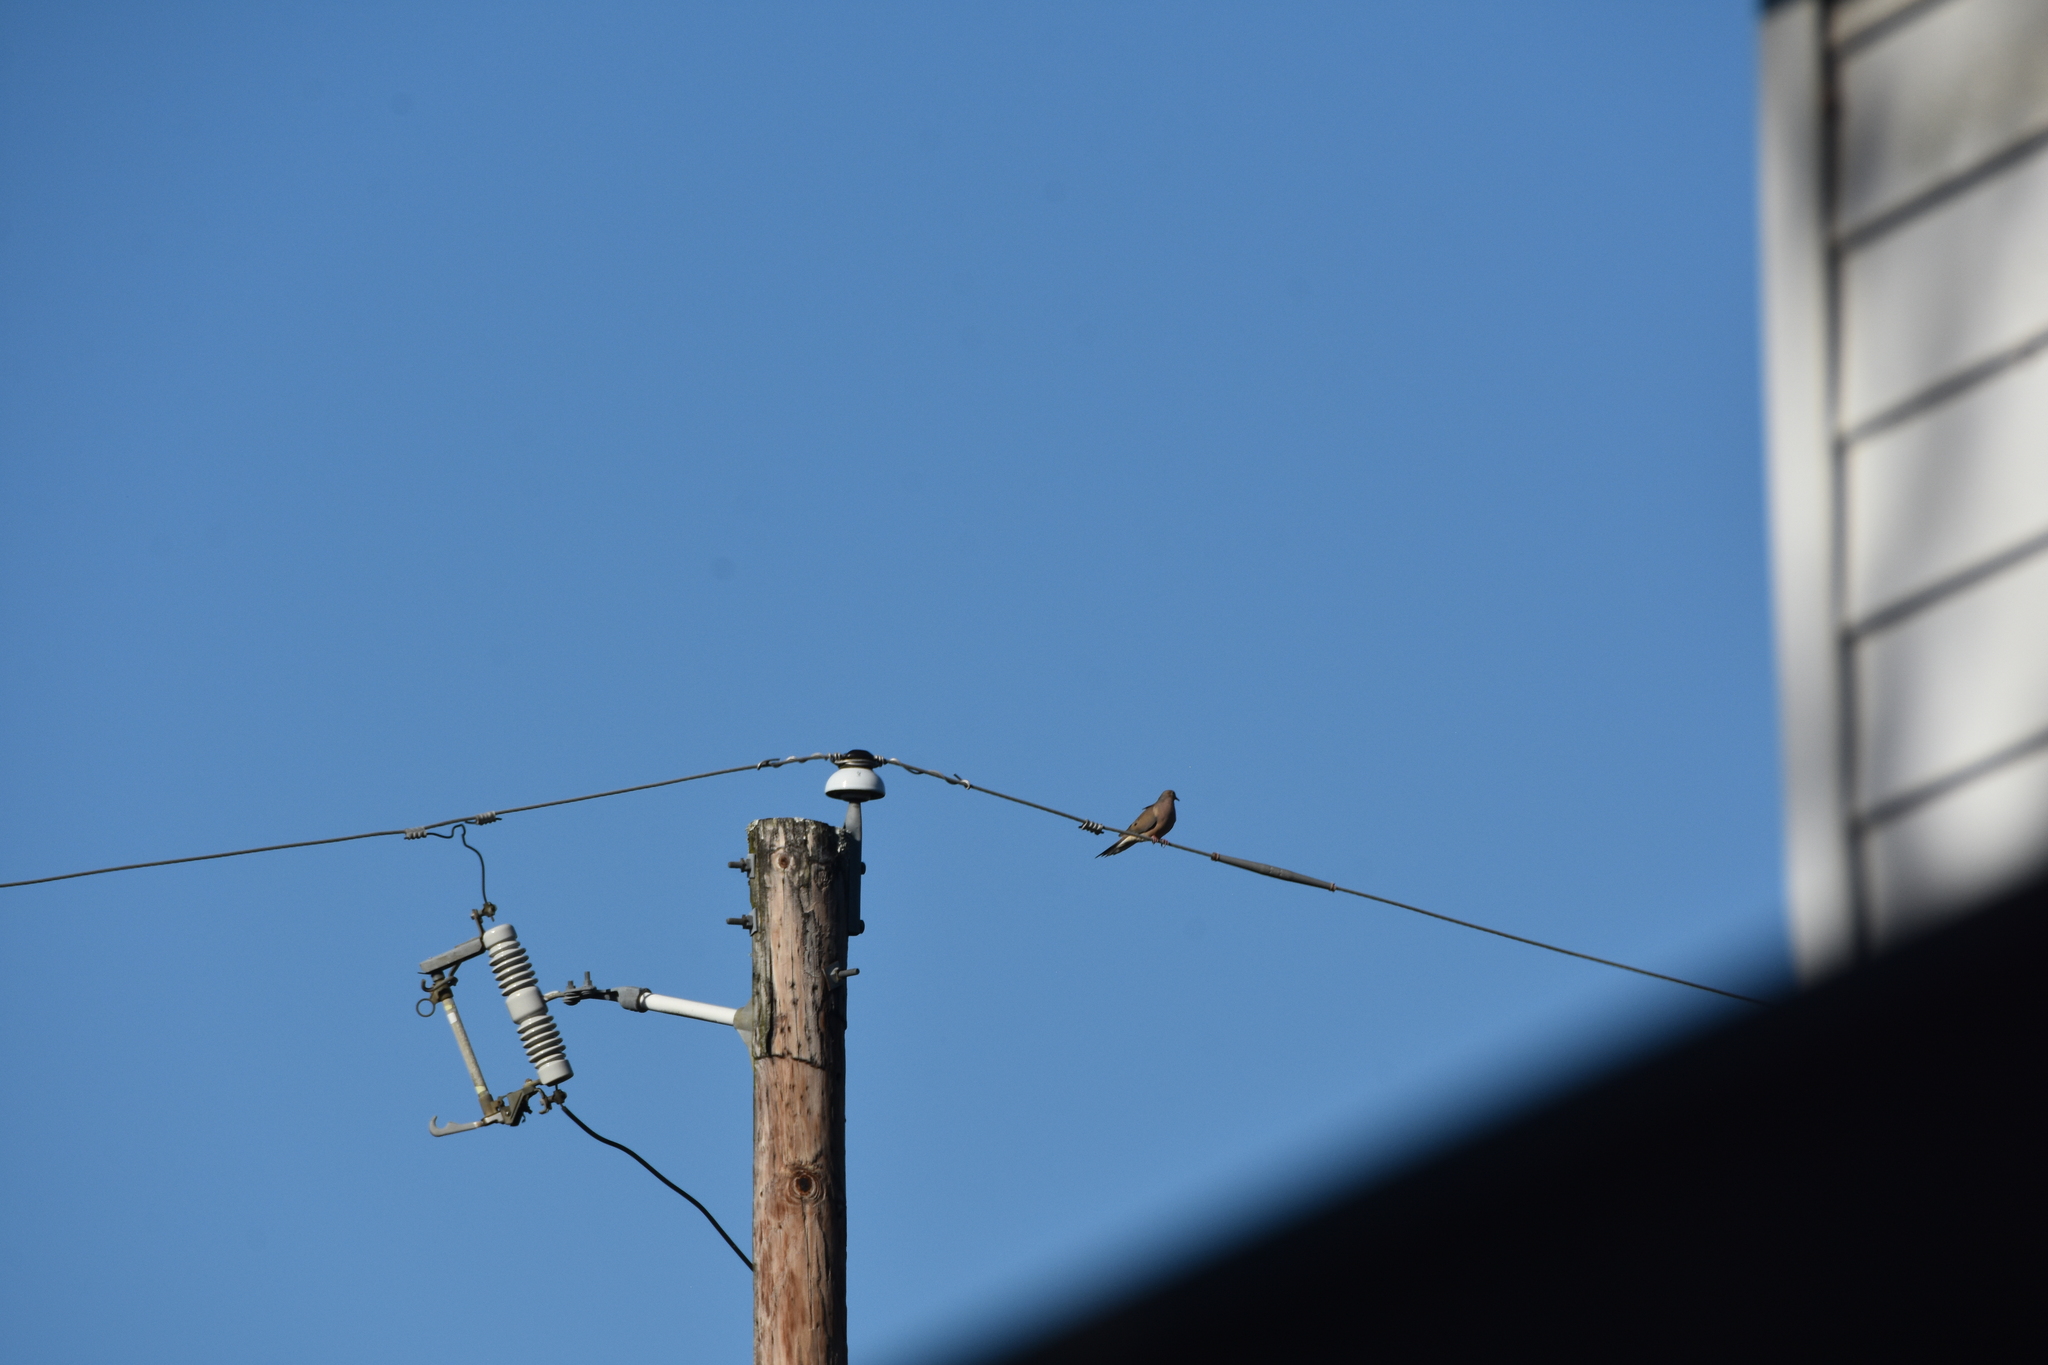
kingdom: Animalia
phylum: Chordata
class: Aves
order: Columbiformes
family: Columbidae
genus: Zenaida
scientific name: Zenaida macroura
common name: Mourning dove
